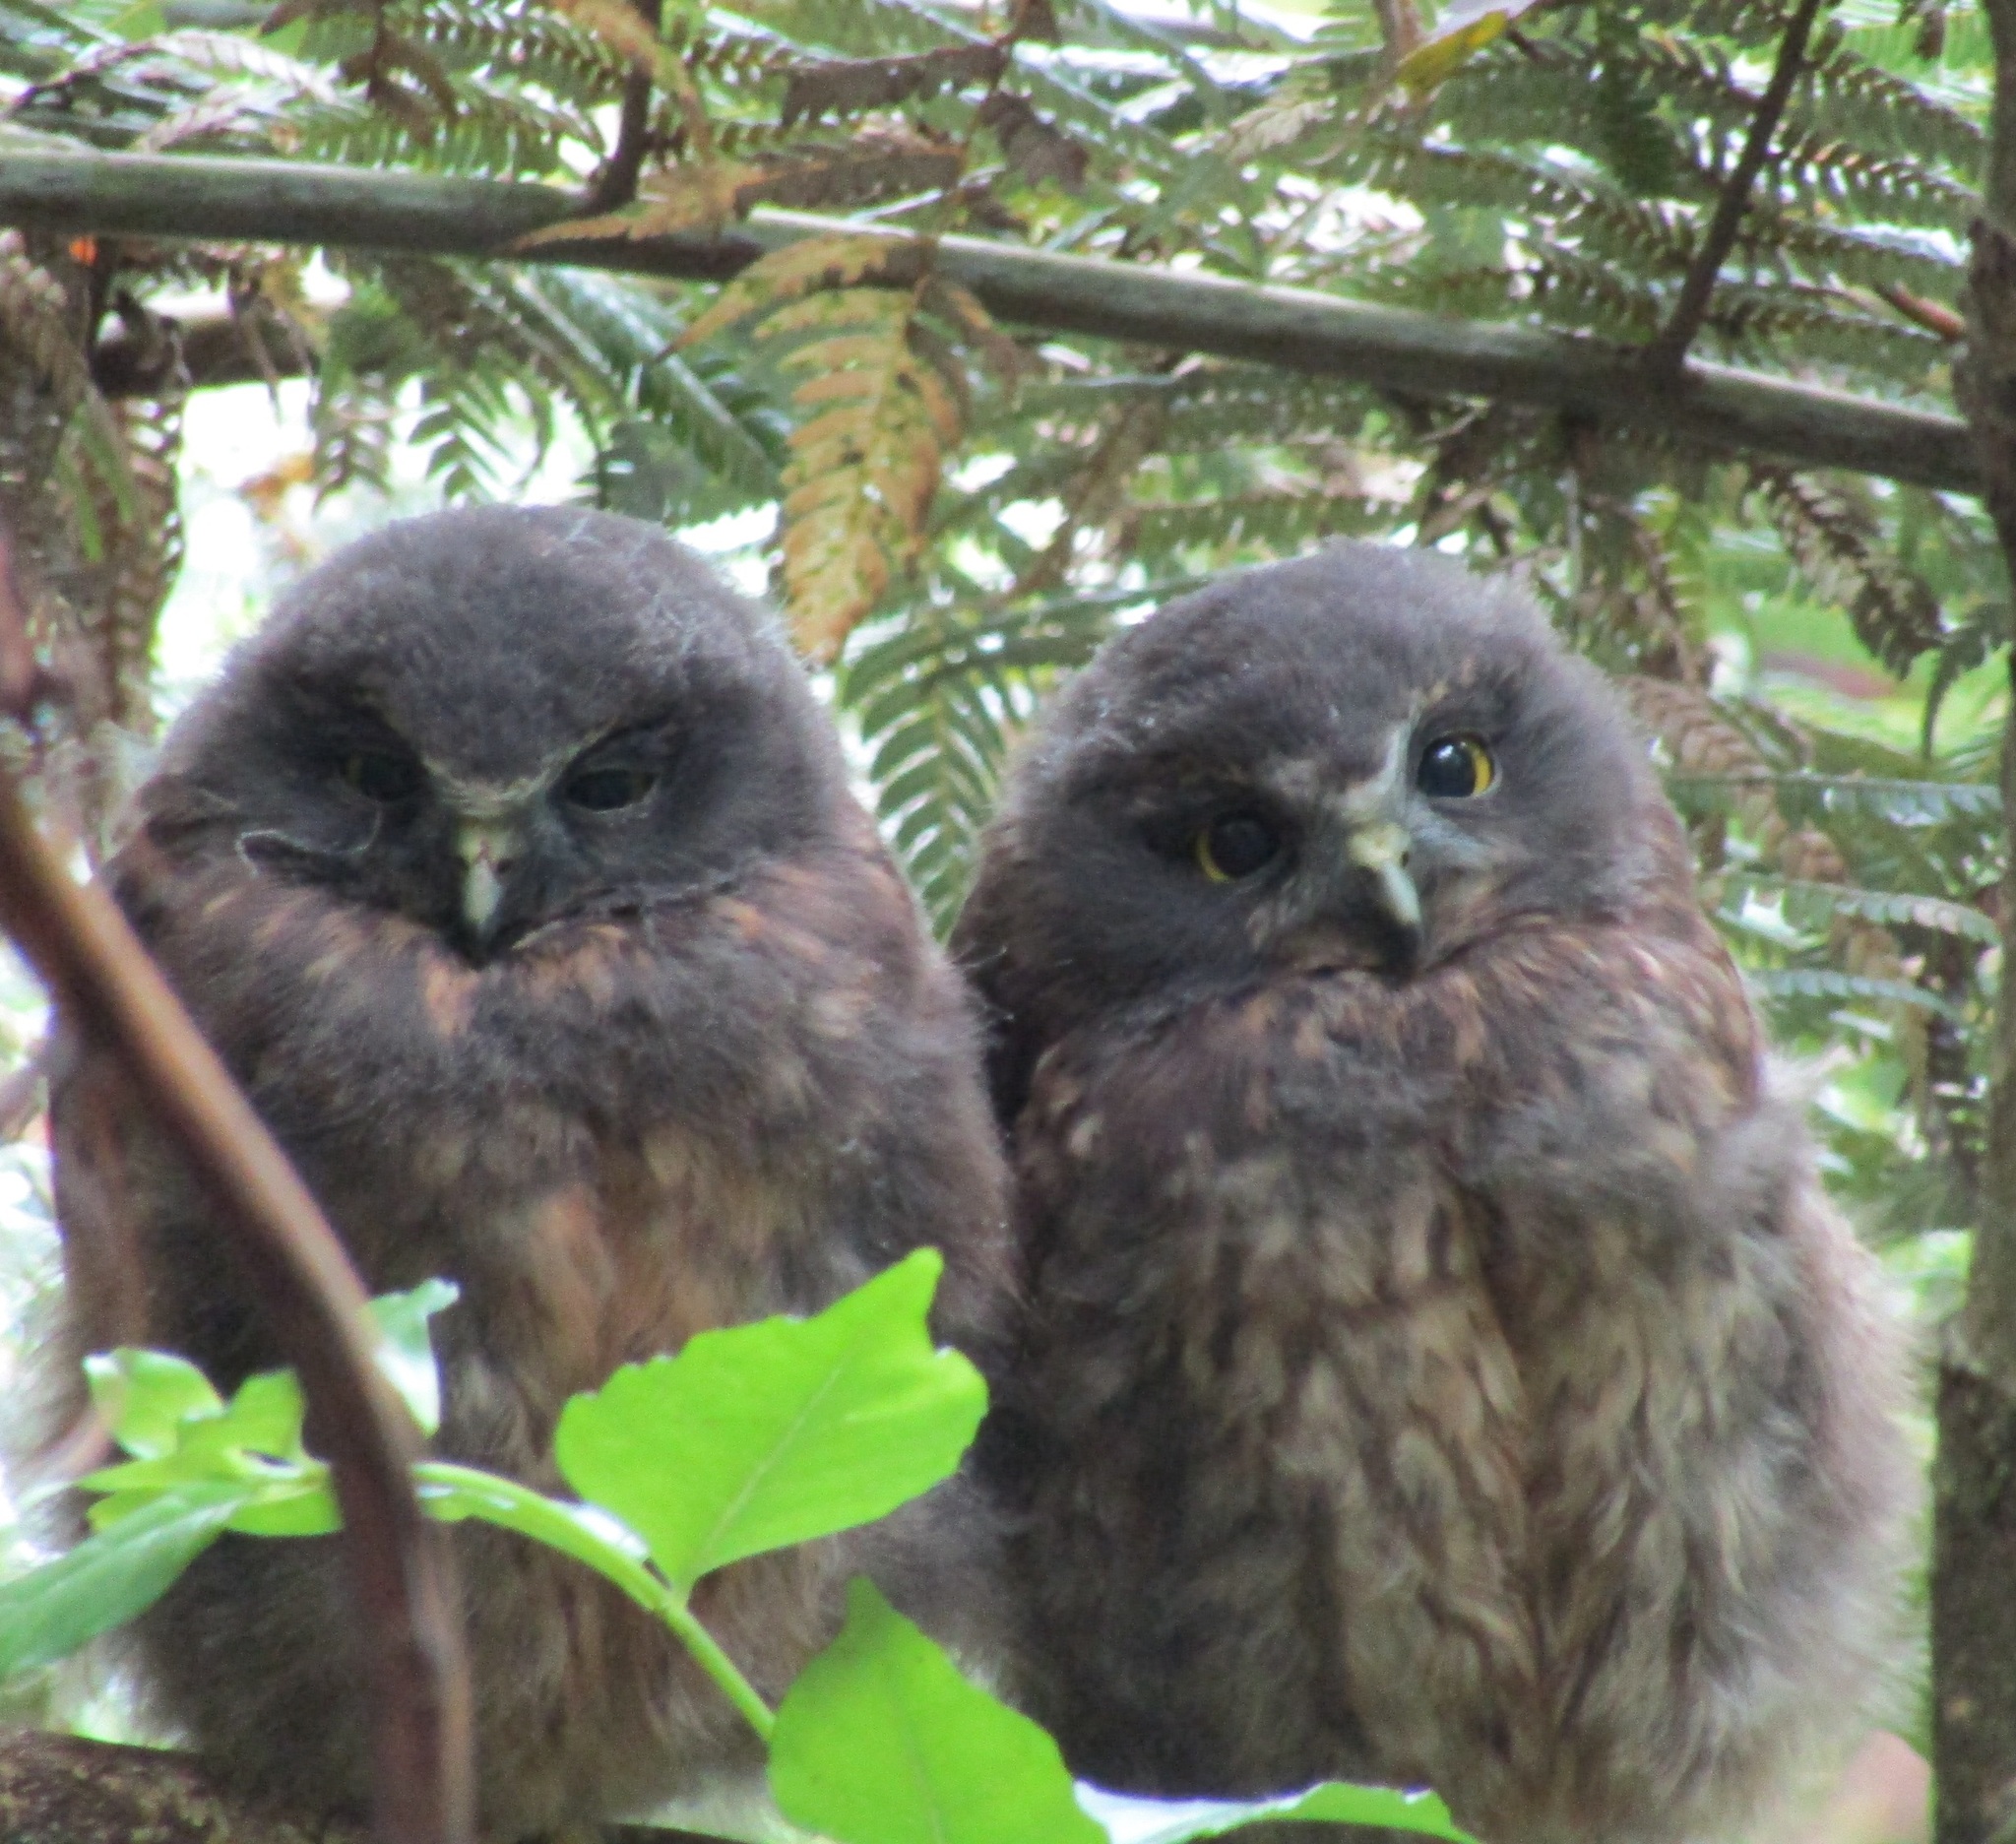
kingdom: Animalia
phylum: Chordata
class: Aves
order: Strigiformes
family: Strigidae
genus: Ninox
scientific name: Ninox novaeseelandiae
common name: Morepork
